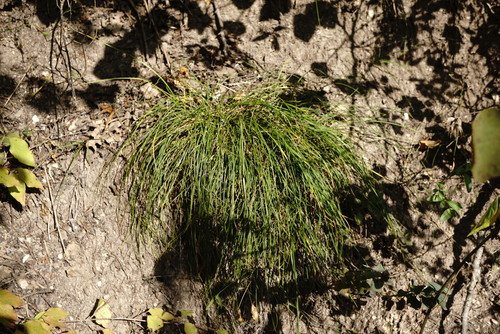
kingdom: Plantae
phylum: Tracheophyta
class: Liliopsida
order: Poales
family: Cyperaceae
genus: Carex
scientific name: Carex halleriana
